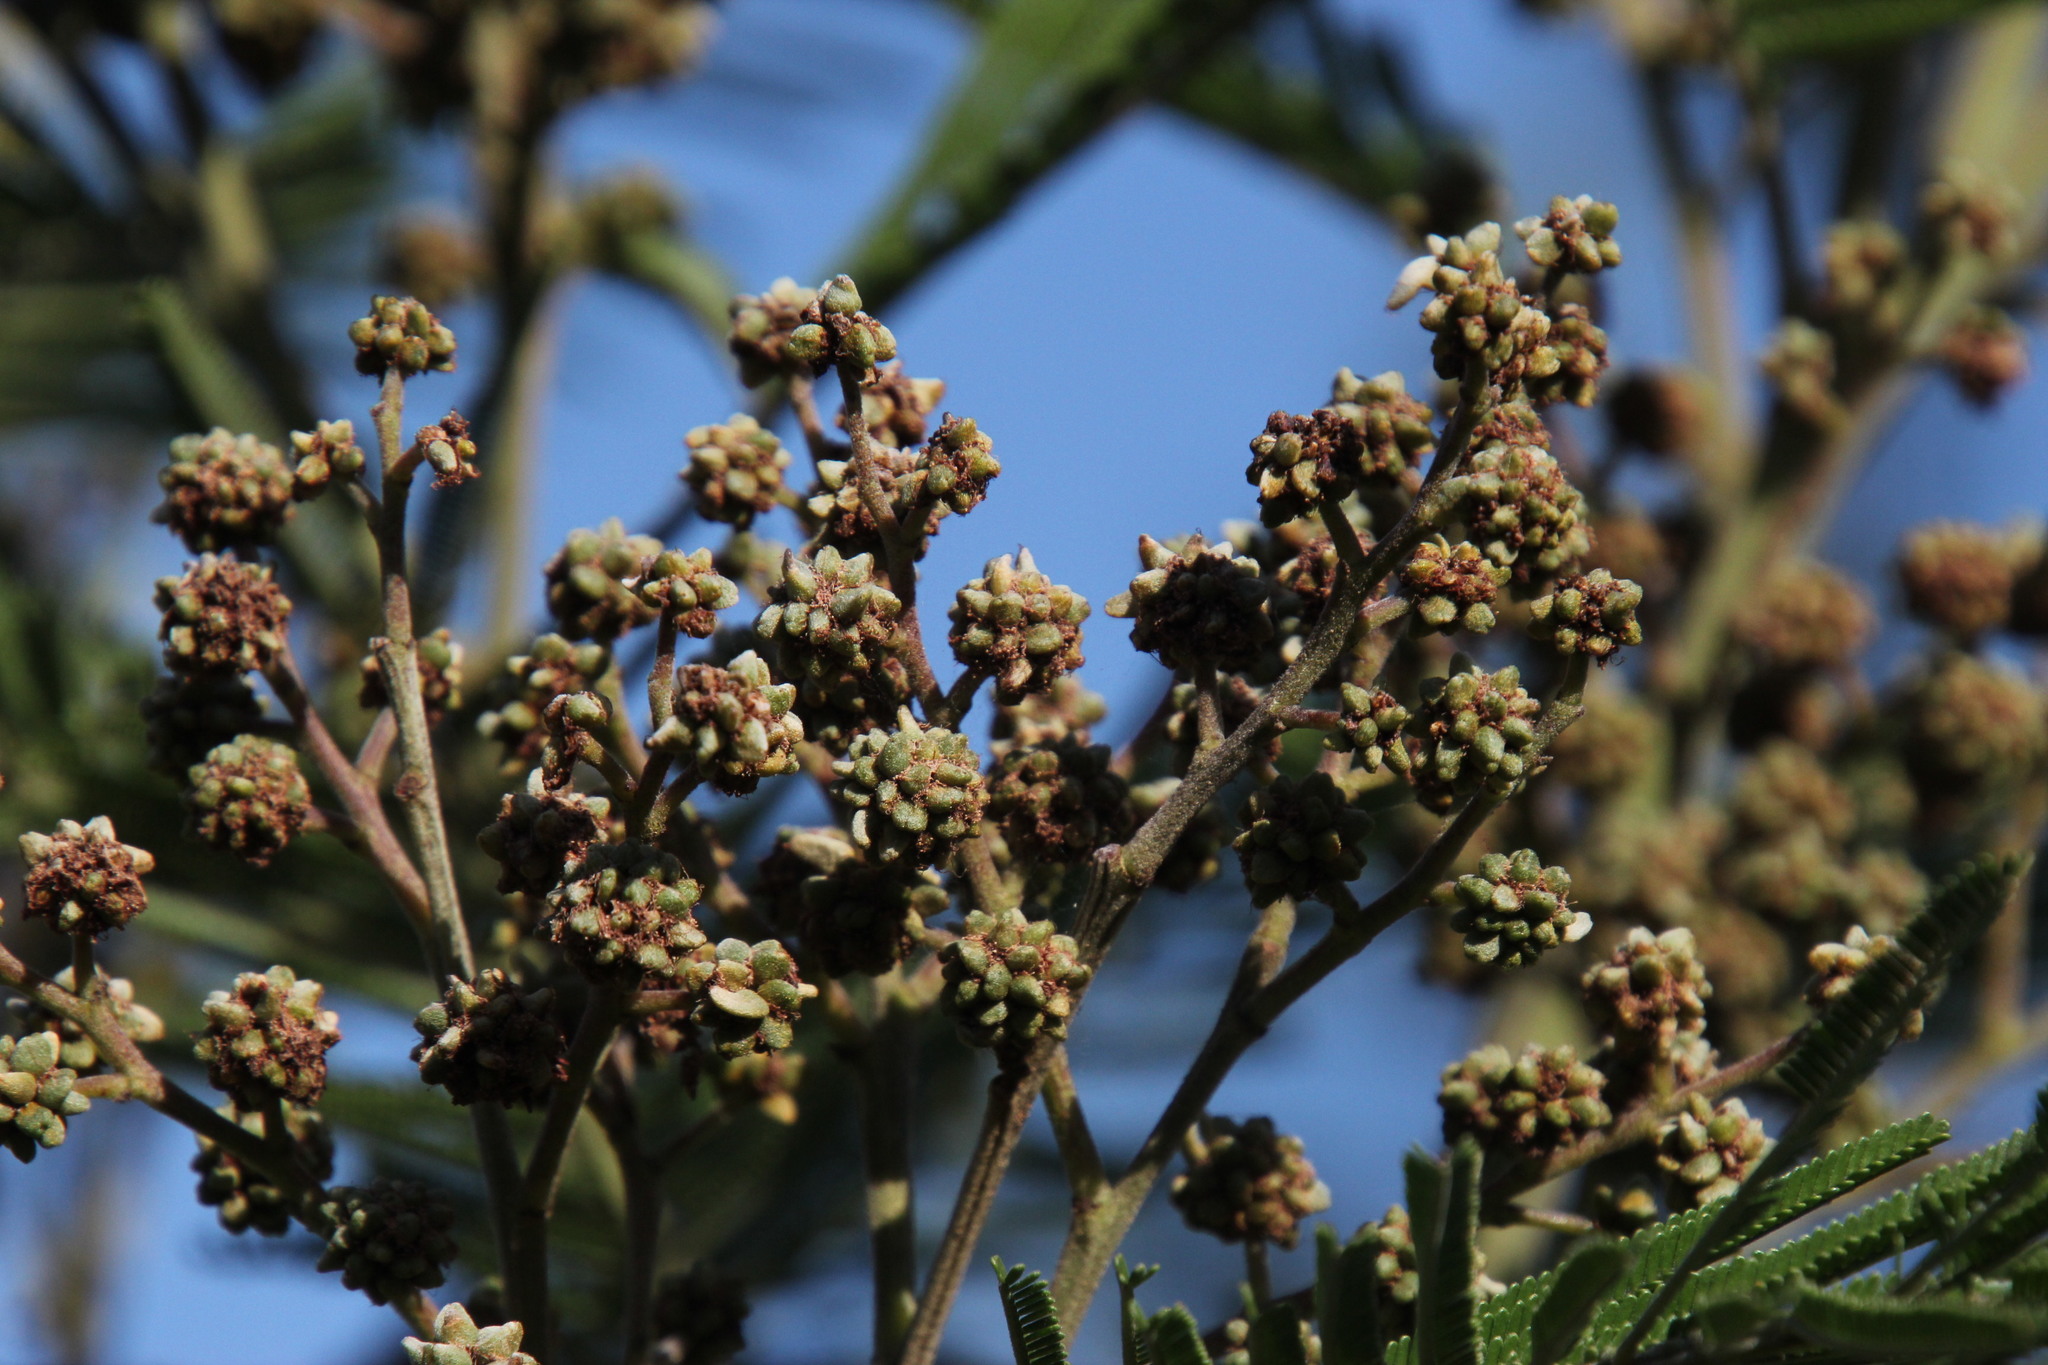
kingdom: Plantae
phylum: Tracheophyta
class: Magnoliopsida
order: Fabales
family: Fabaceae
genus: Acacia
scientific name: Acacia mearnsii
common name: Black wattle
